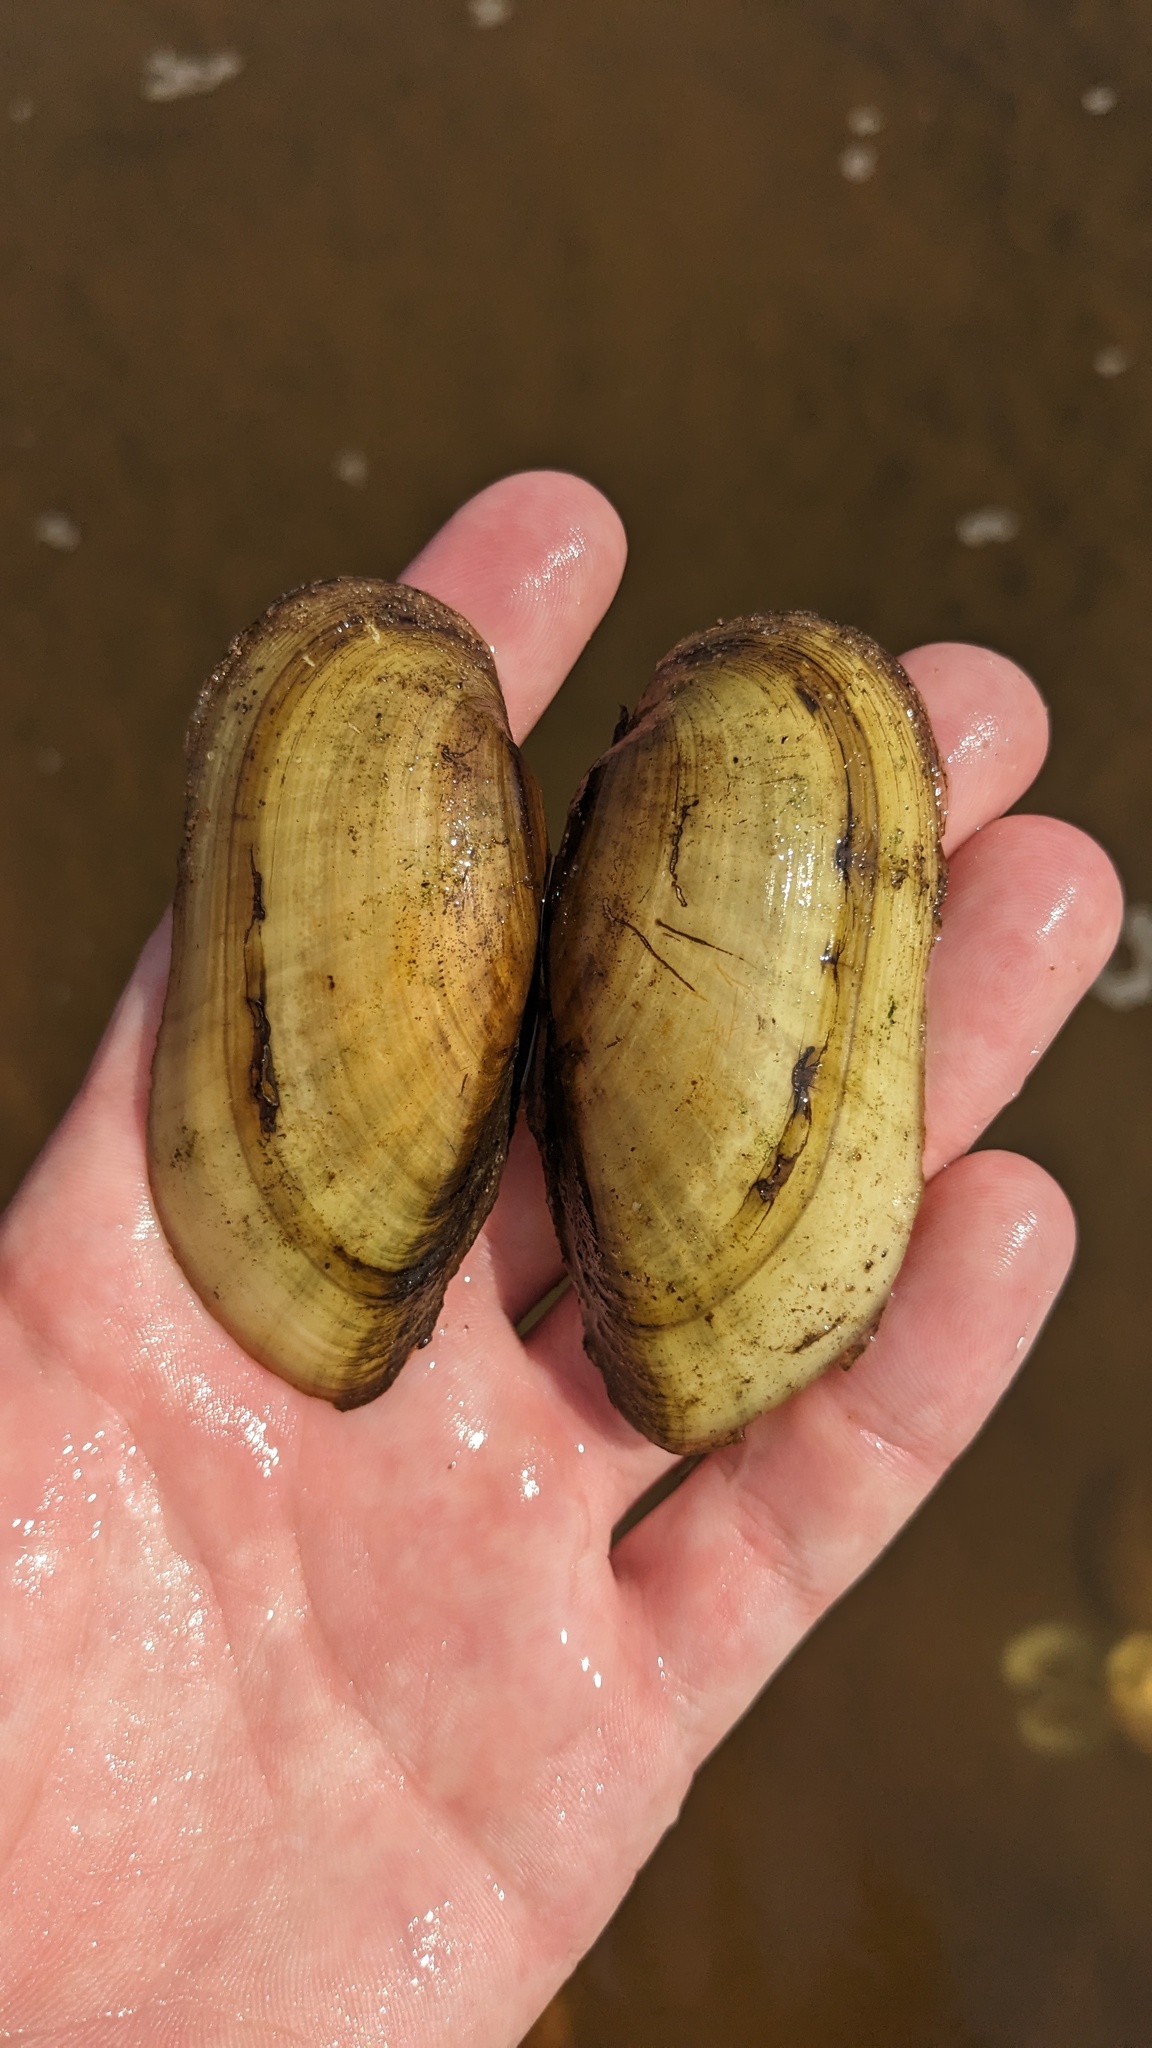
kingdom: Animalia
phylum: Mollusca
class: Bivalvia
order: Unionida
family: Unionidae
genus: Lampsilis
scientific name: Lampsilis teres
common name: Yellow sandshell
